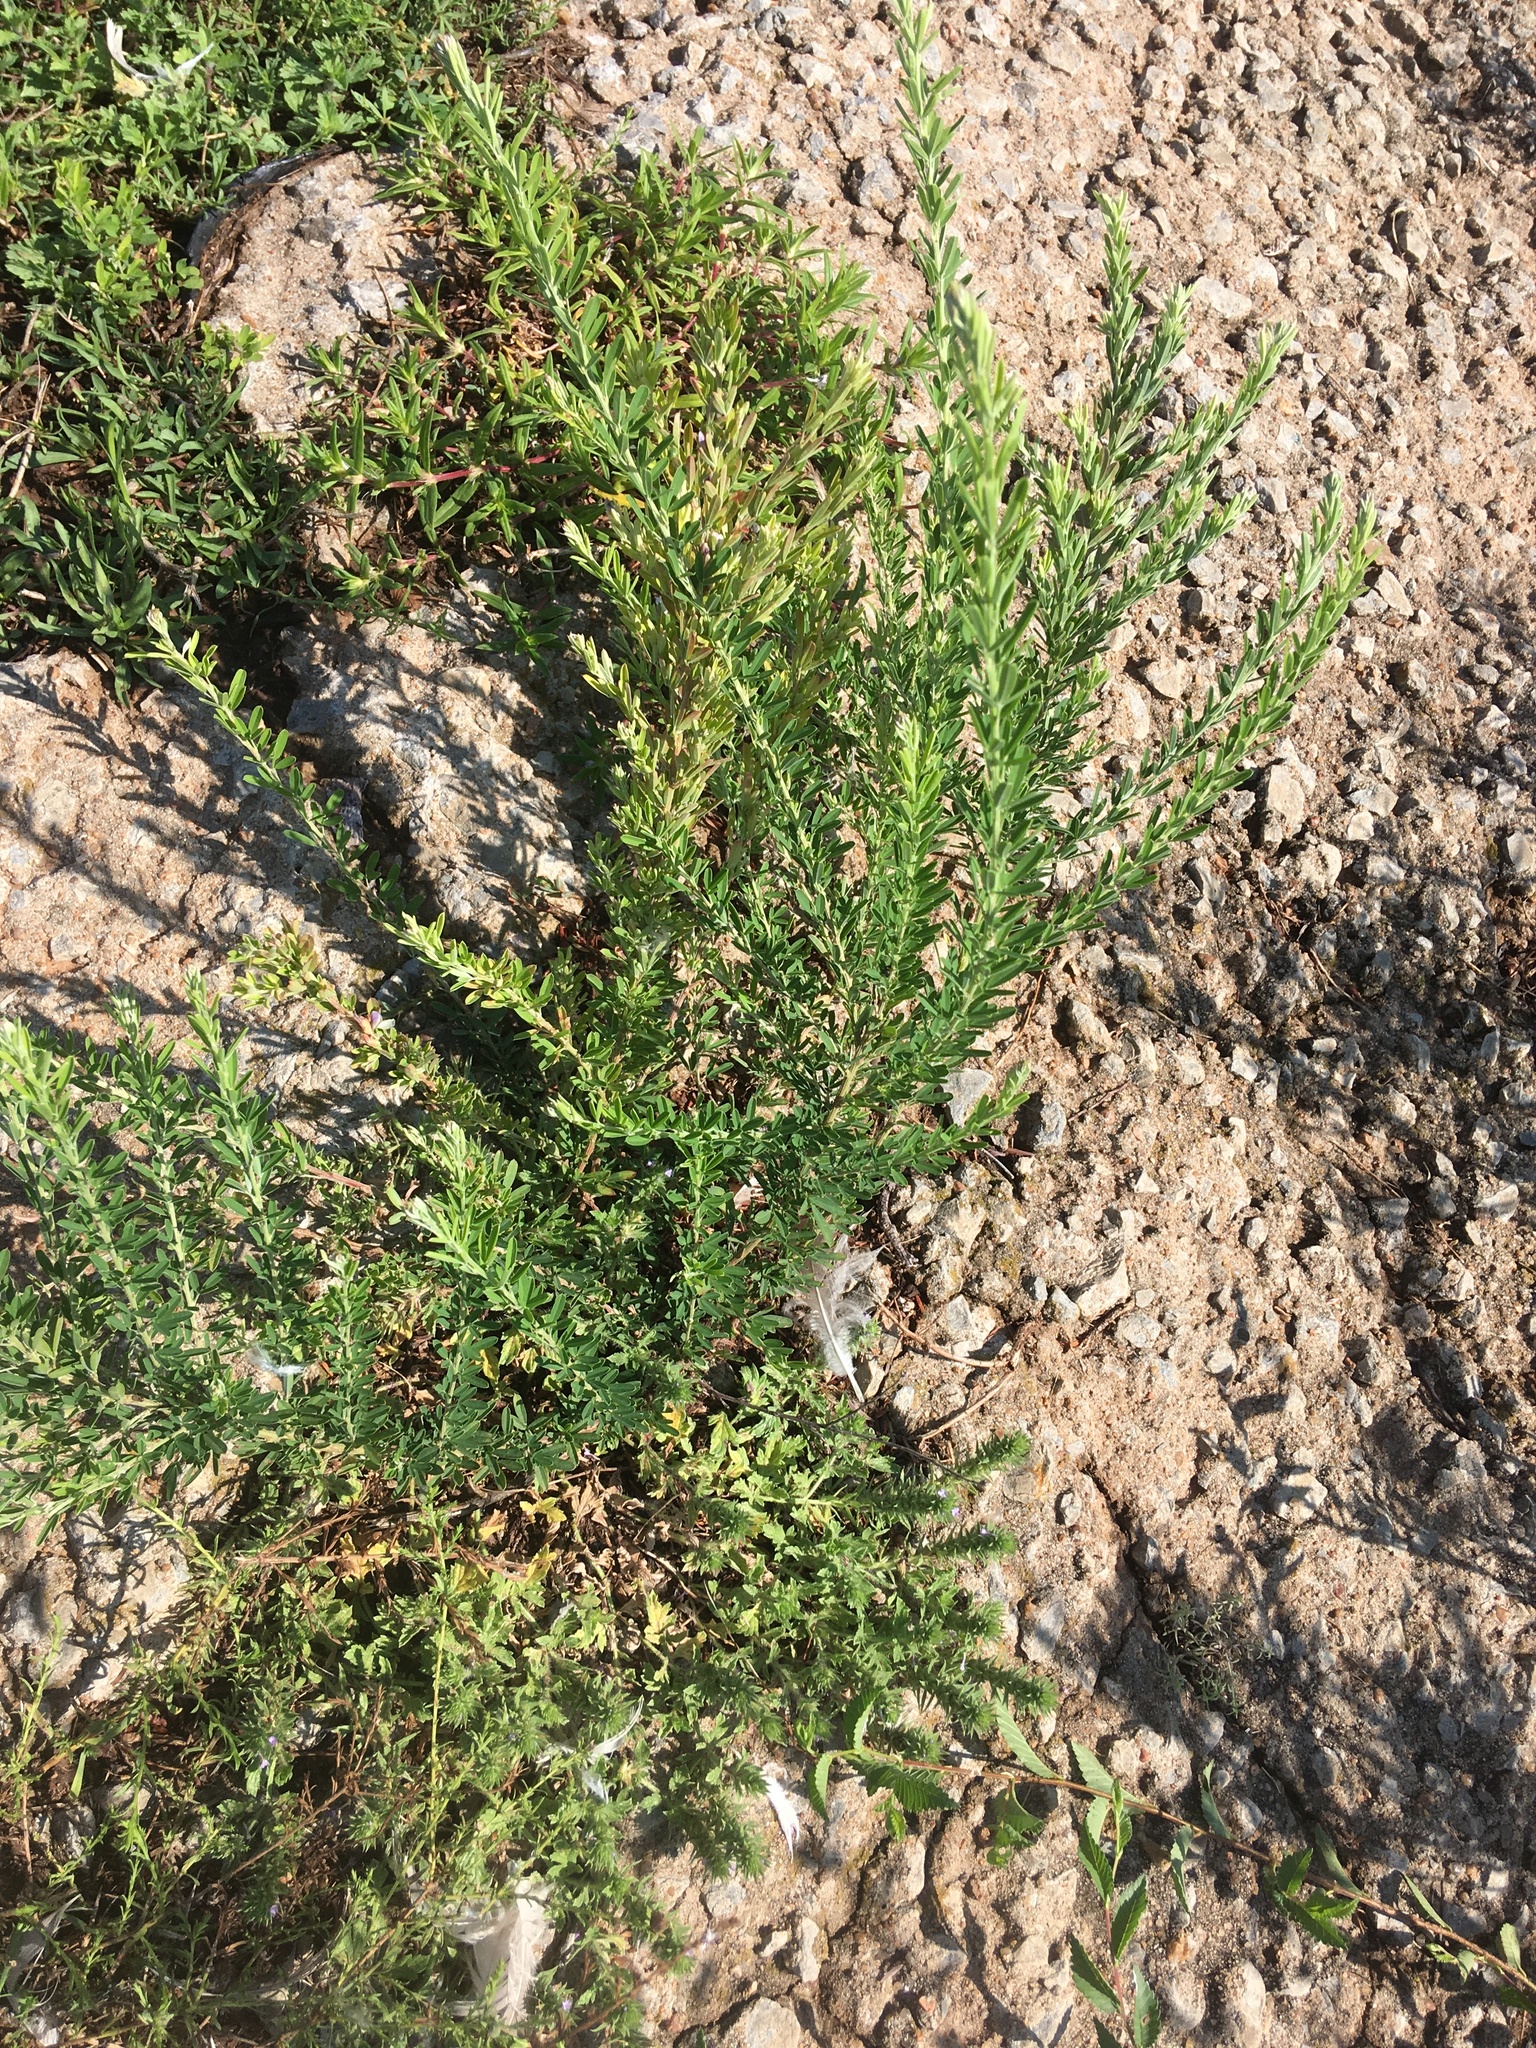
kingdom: Plantae
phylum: Tracheophyta
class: Magnoliopsida
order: Fabales
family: Fabaceae
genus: Lespedeza
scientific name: Lespedeza cuneata
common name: Chinese bush-clover
